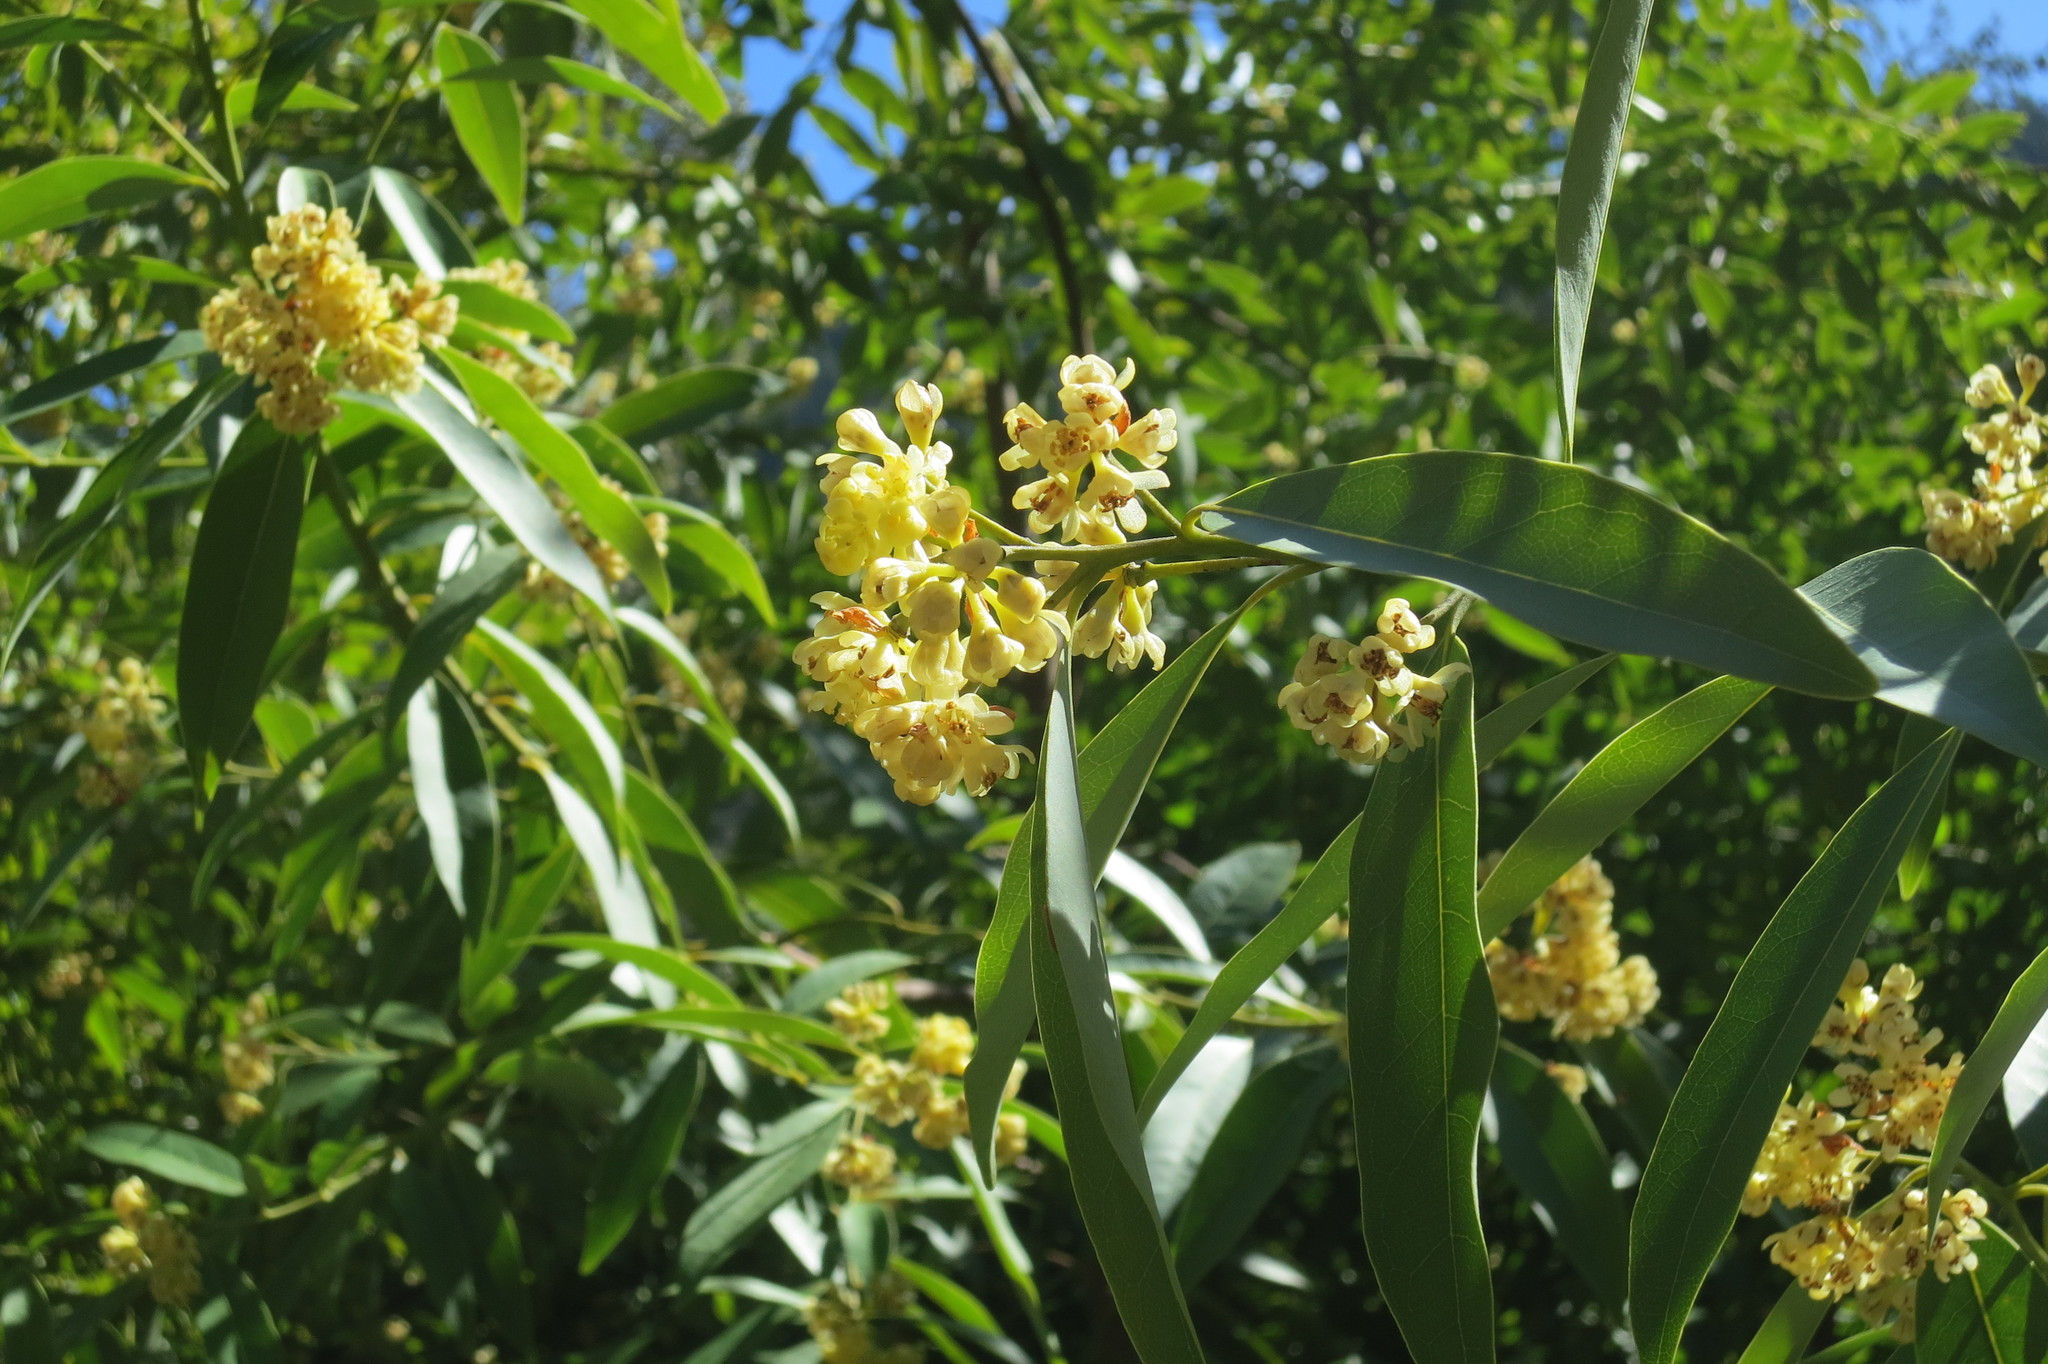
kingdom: Plantae
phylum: Tracheophyta
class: Magnoliopsida
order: Laurales
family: Lauraceae
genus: Umbellularia
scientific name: Umbellularia californica
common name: California bay
